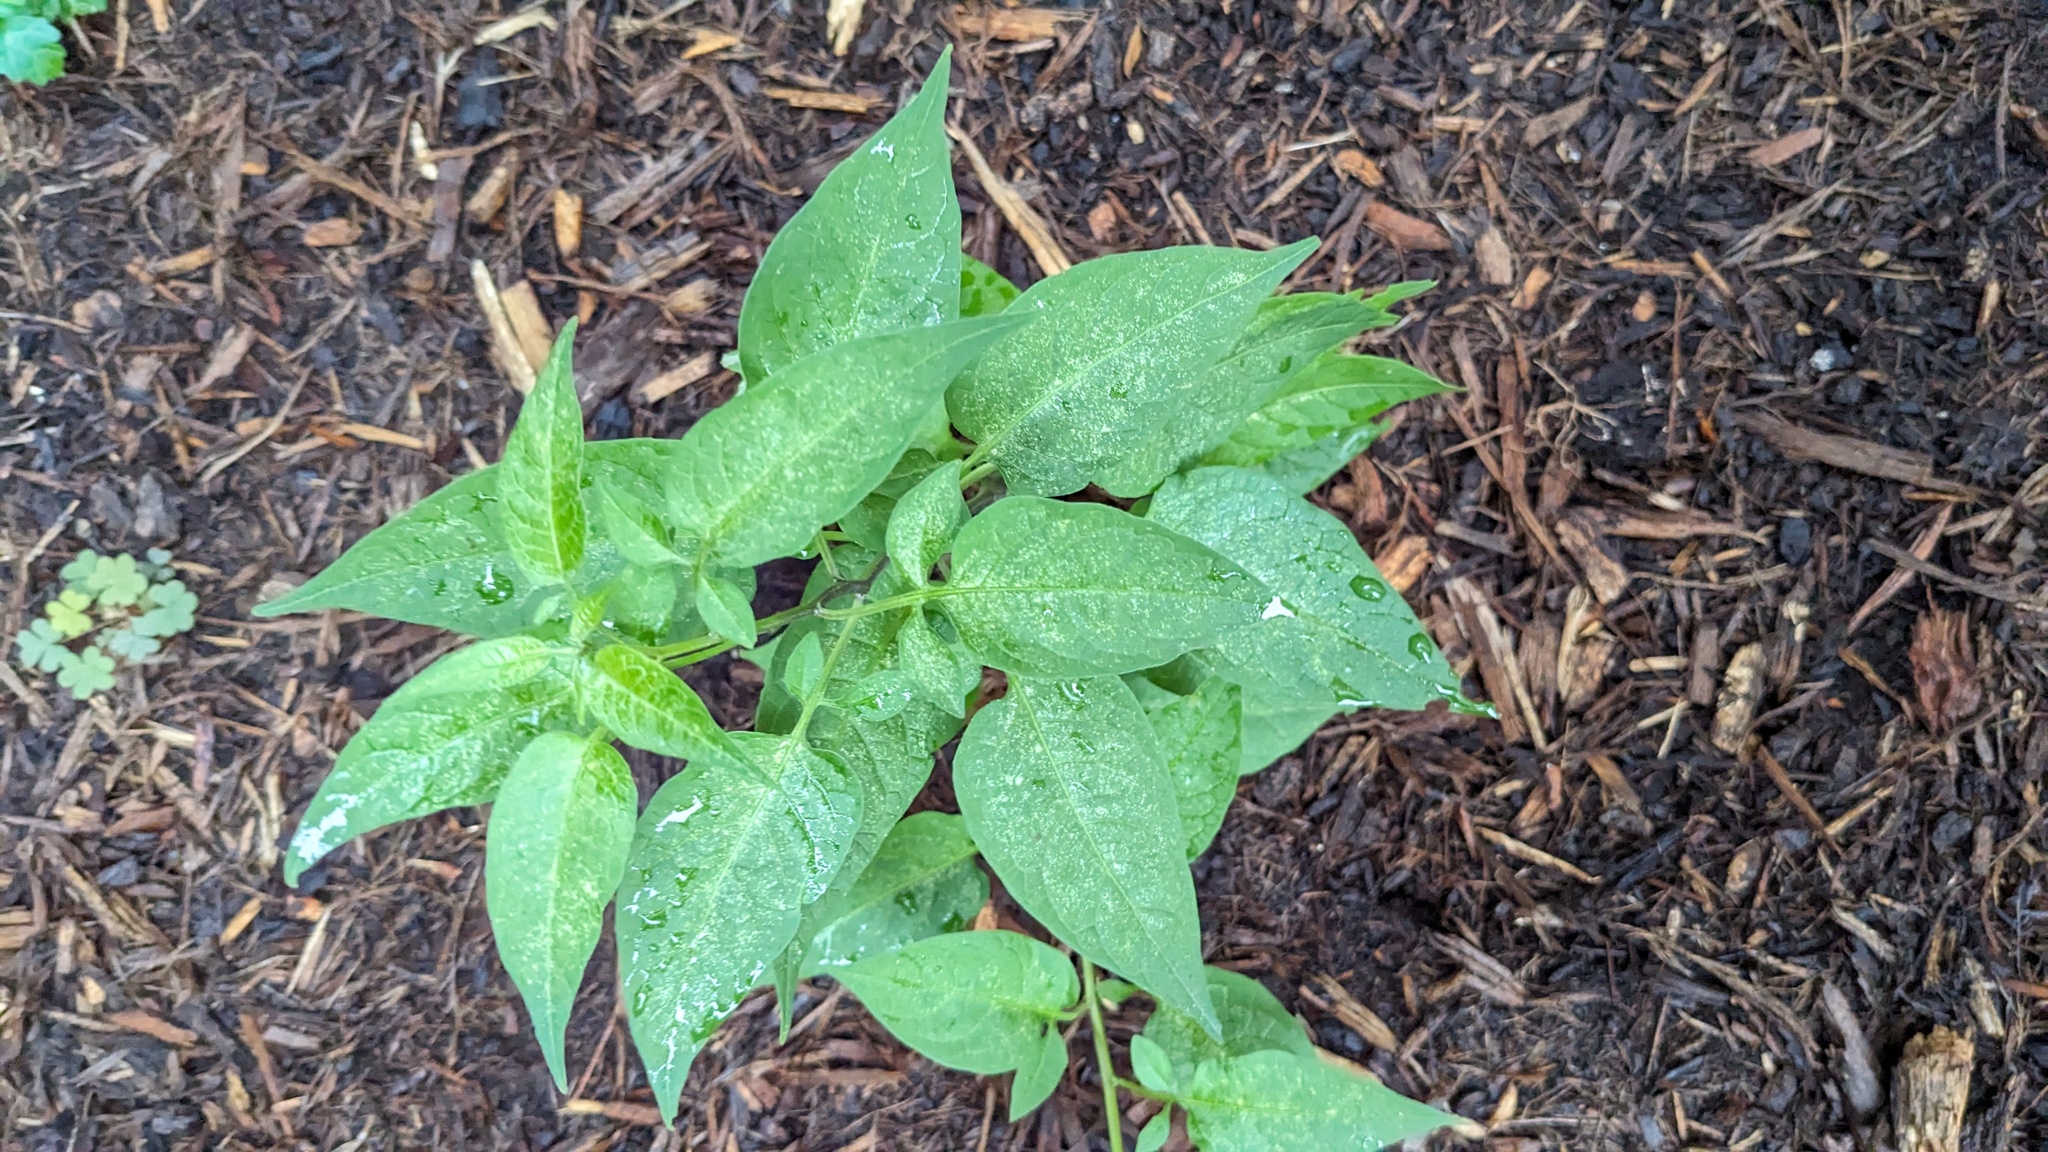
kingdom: Plantae
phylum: Tracheophyta
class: Magnoliopsida
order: Solanales
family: Solanaceae
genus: Solanum
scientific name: Solanum dulcamara
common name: Climbing nightshade
